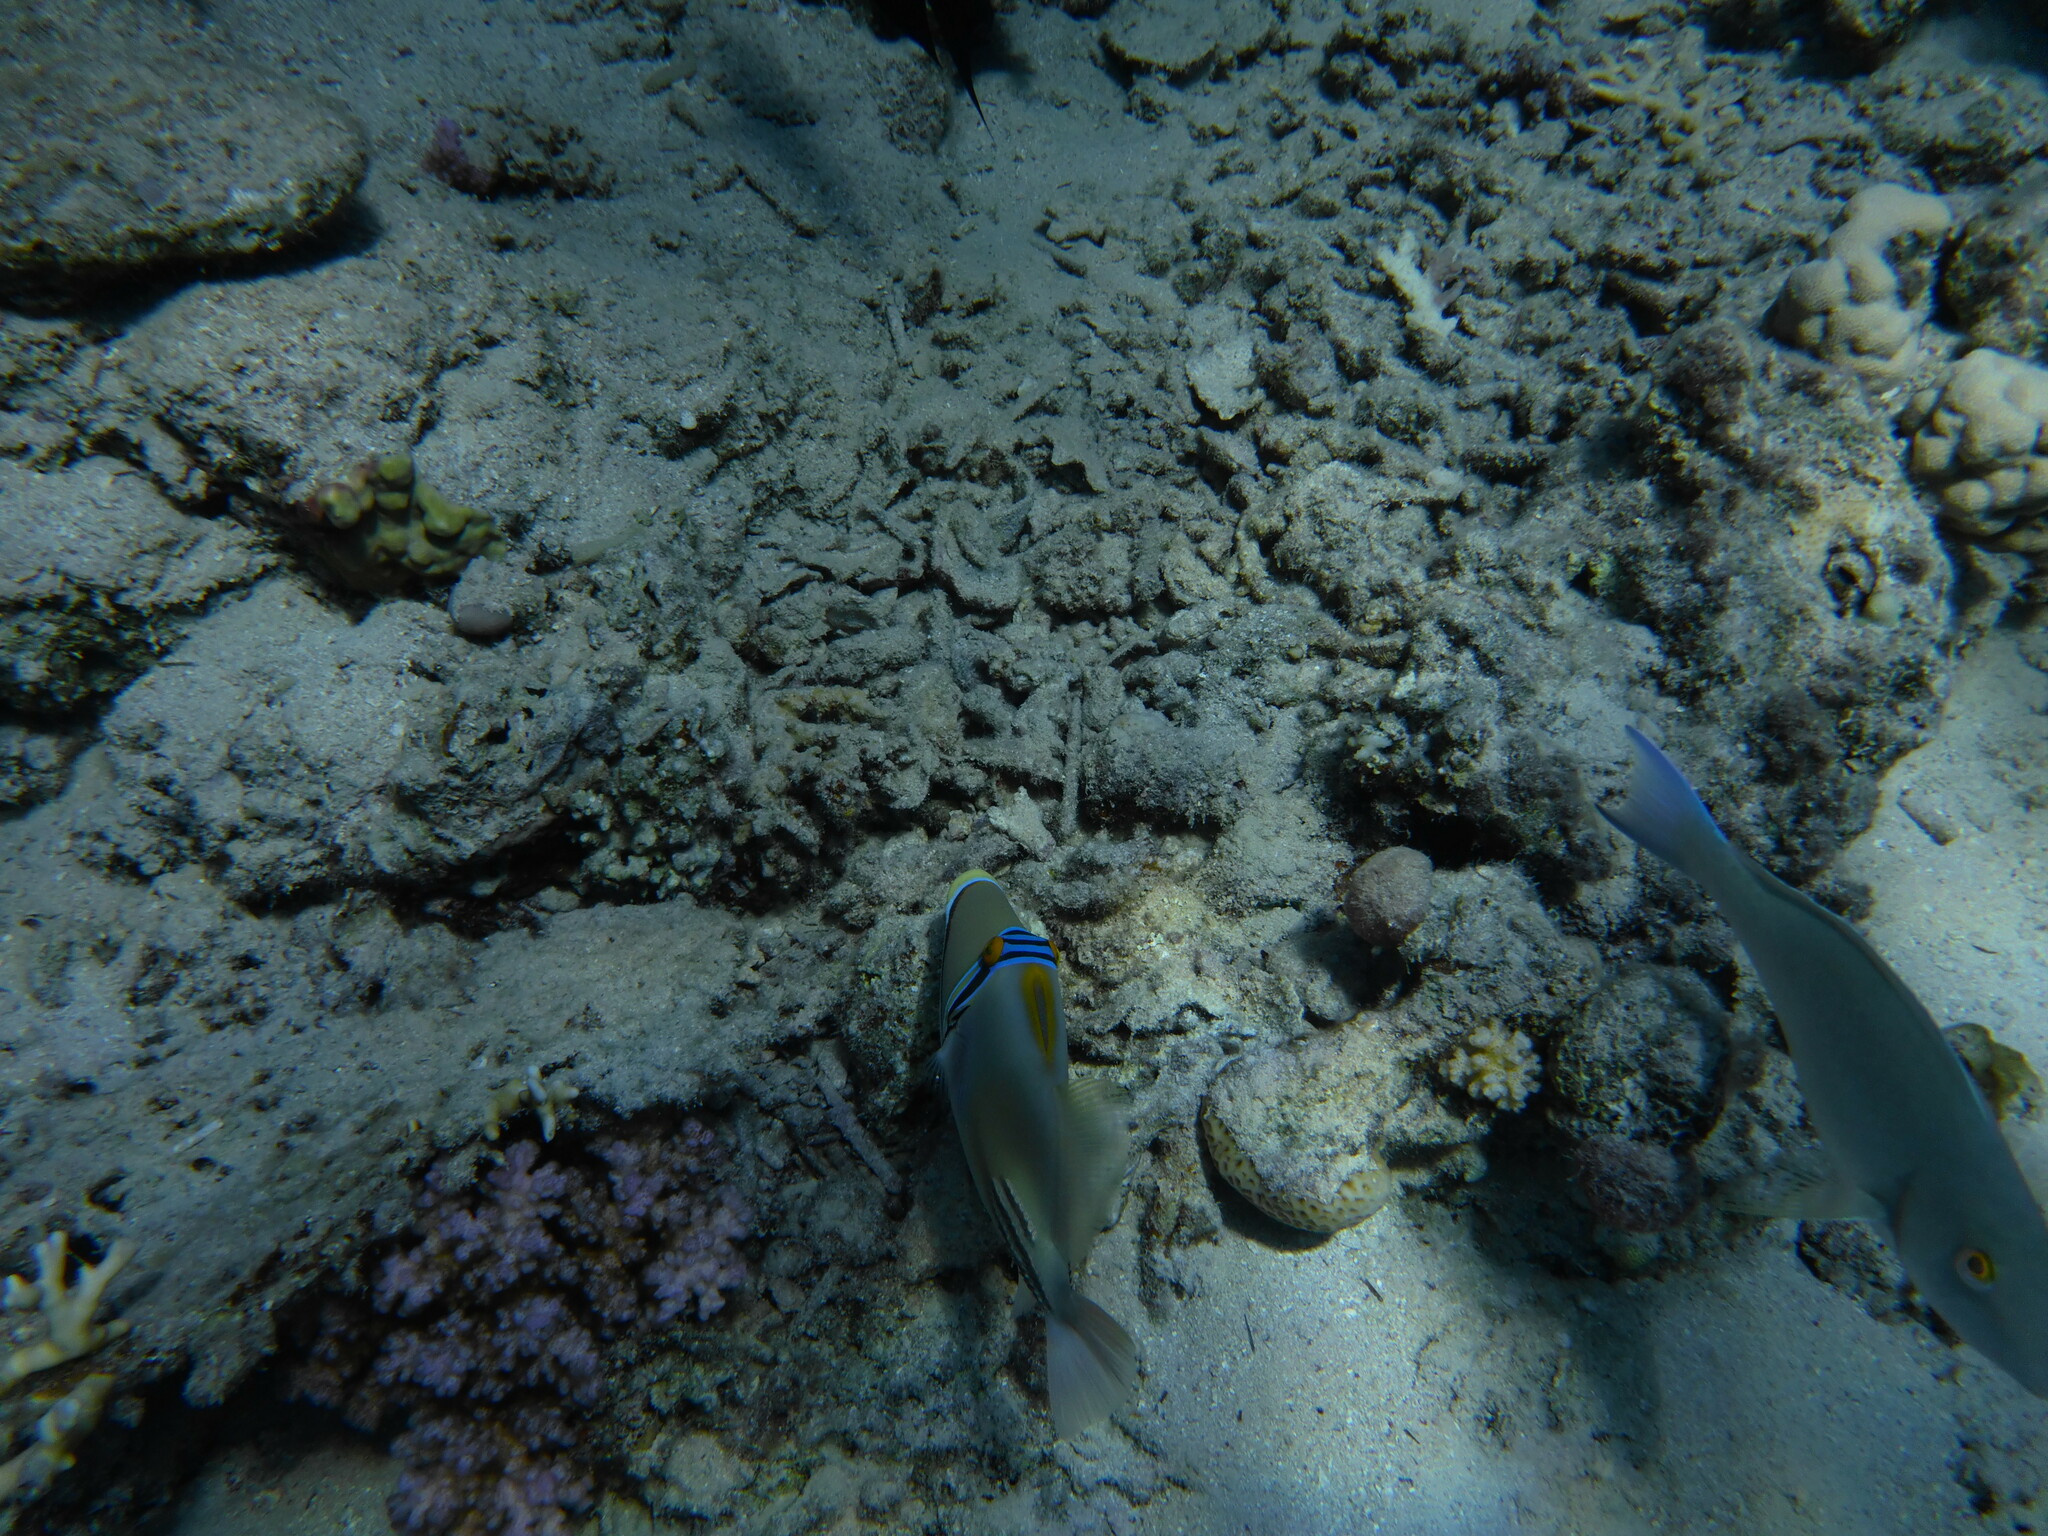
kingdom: Animalia
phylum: Chordata
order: Tetraodontiformes
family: Balistidae
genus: Rhinecanthus
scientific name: Rhinecanthus assasi
